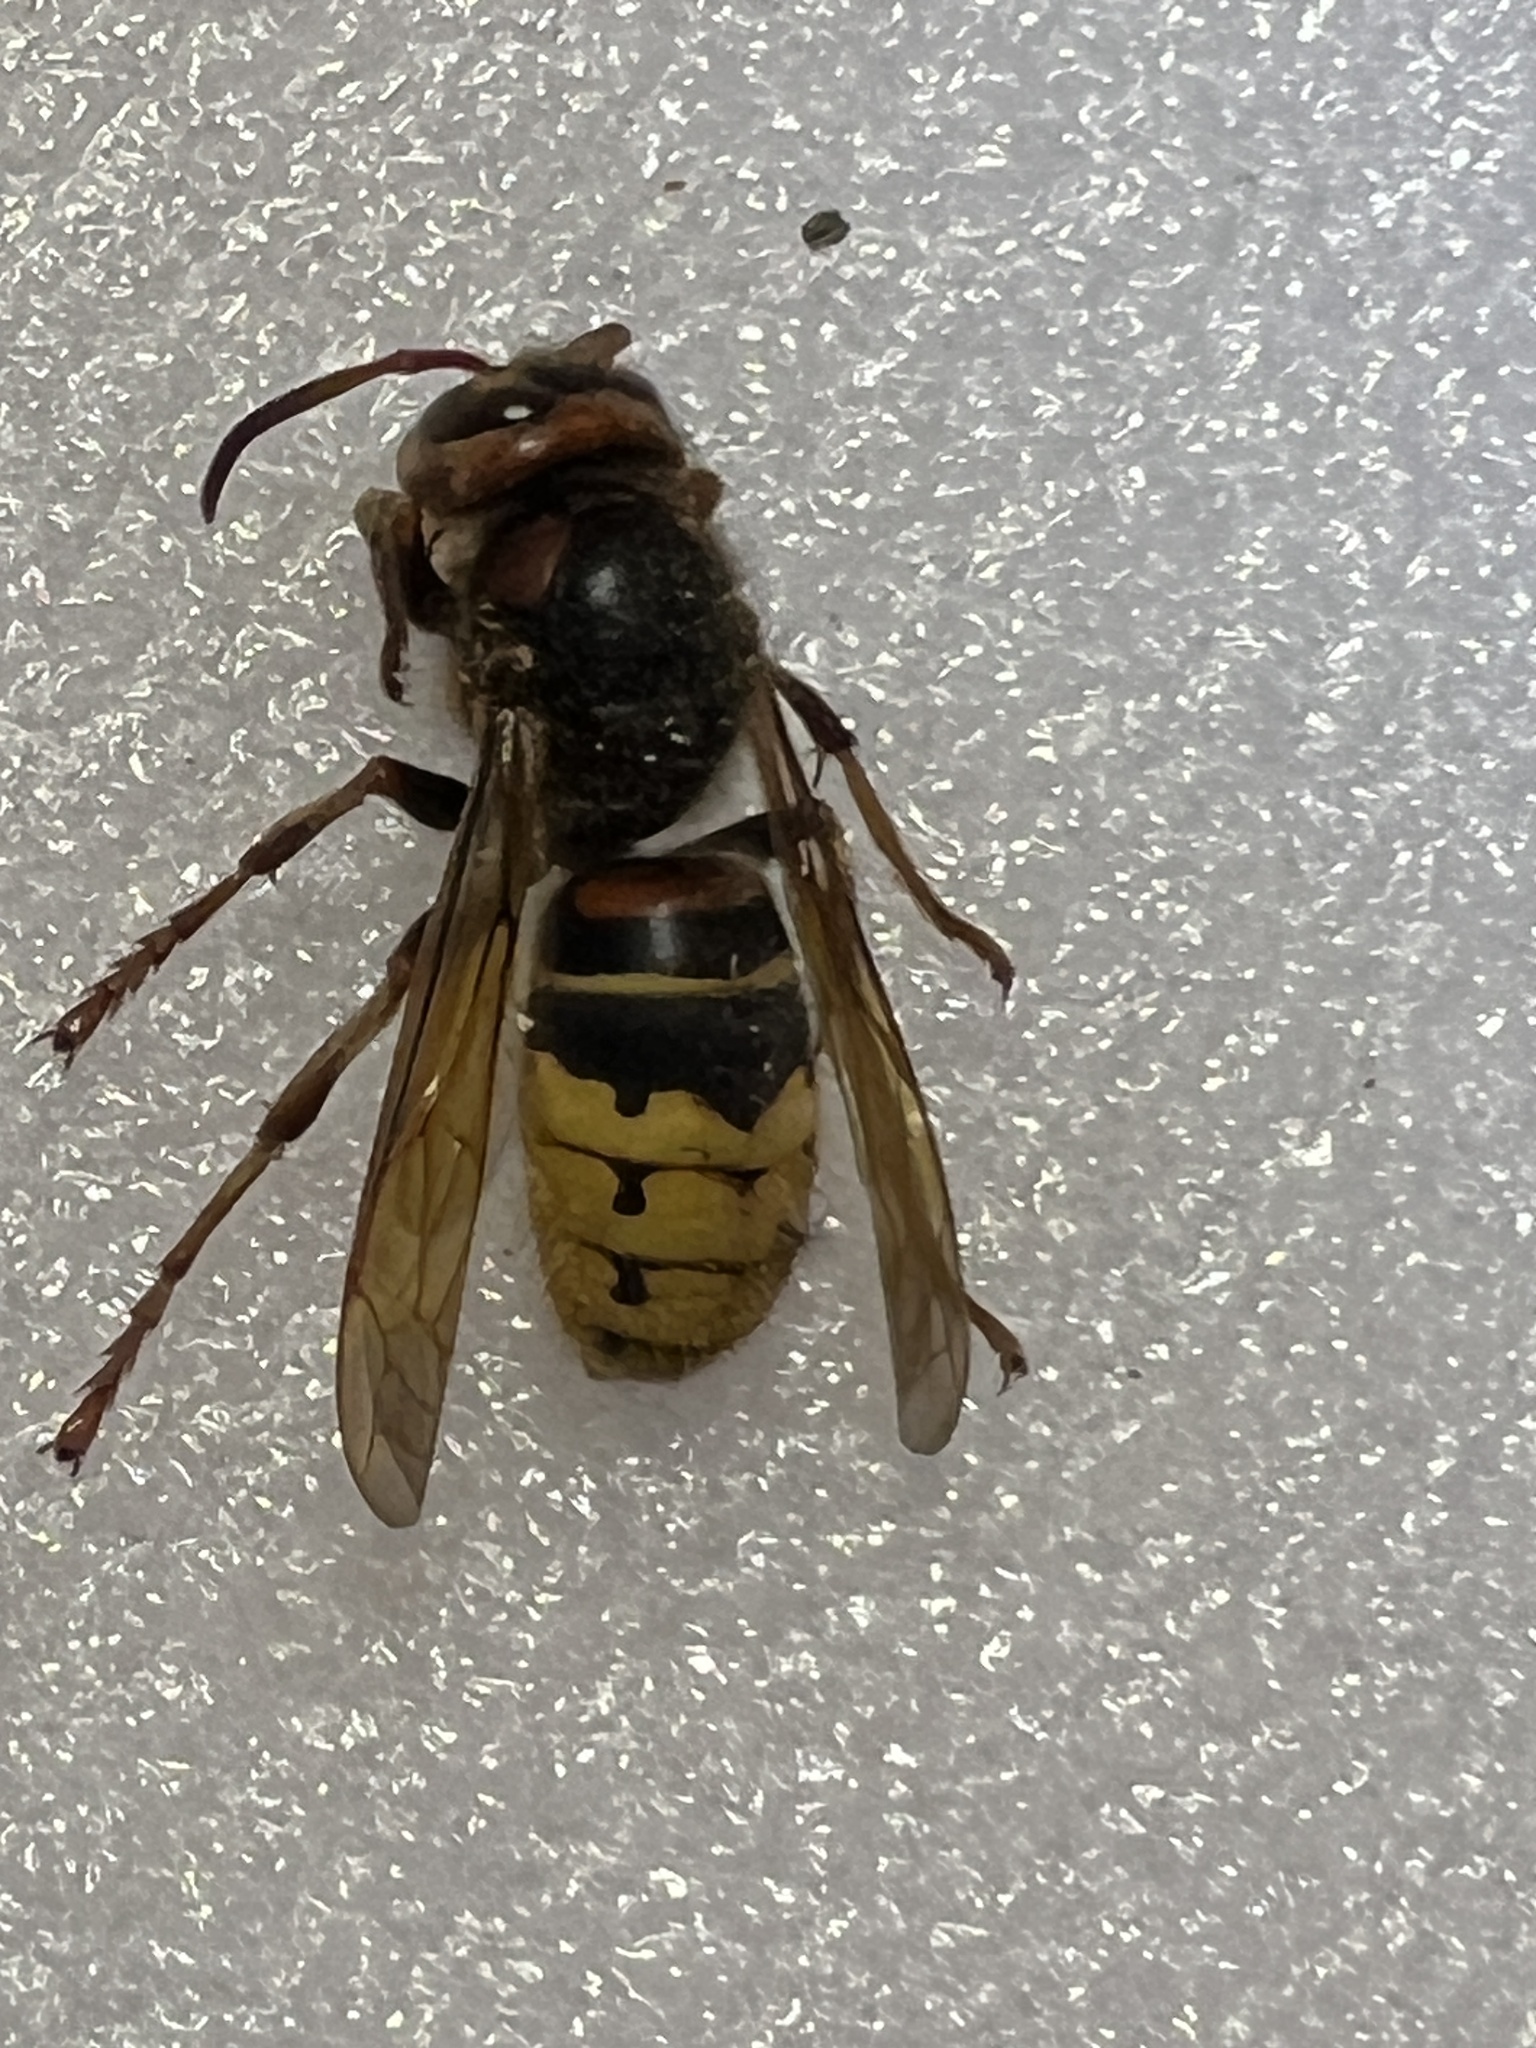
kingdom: Animalia
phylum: Arthropoda
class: Insecta
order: Hymenoptera
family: Vespidae
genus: Vespa
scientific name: Vespa crabro
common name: Hornet
